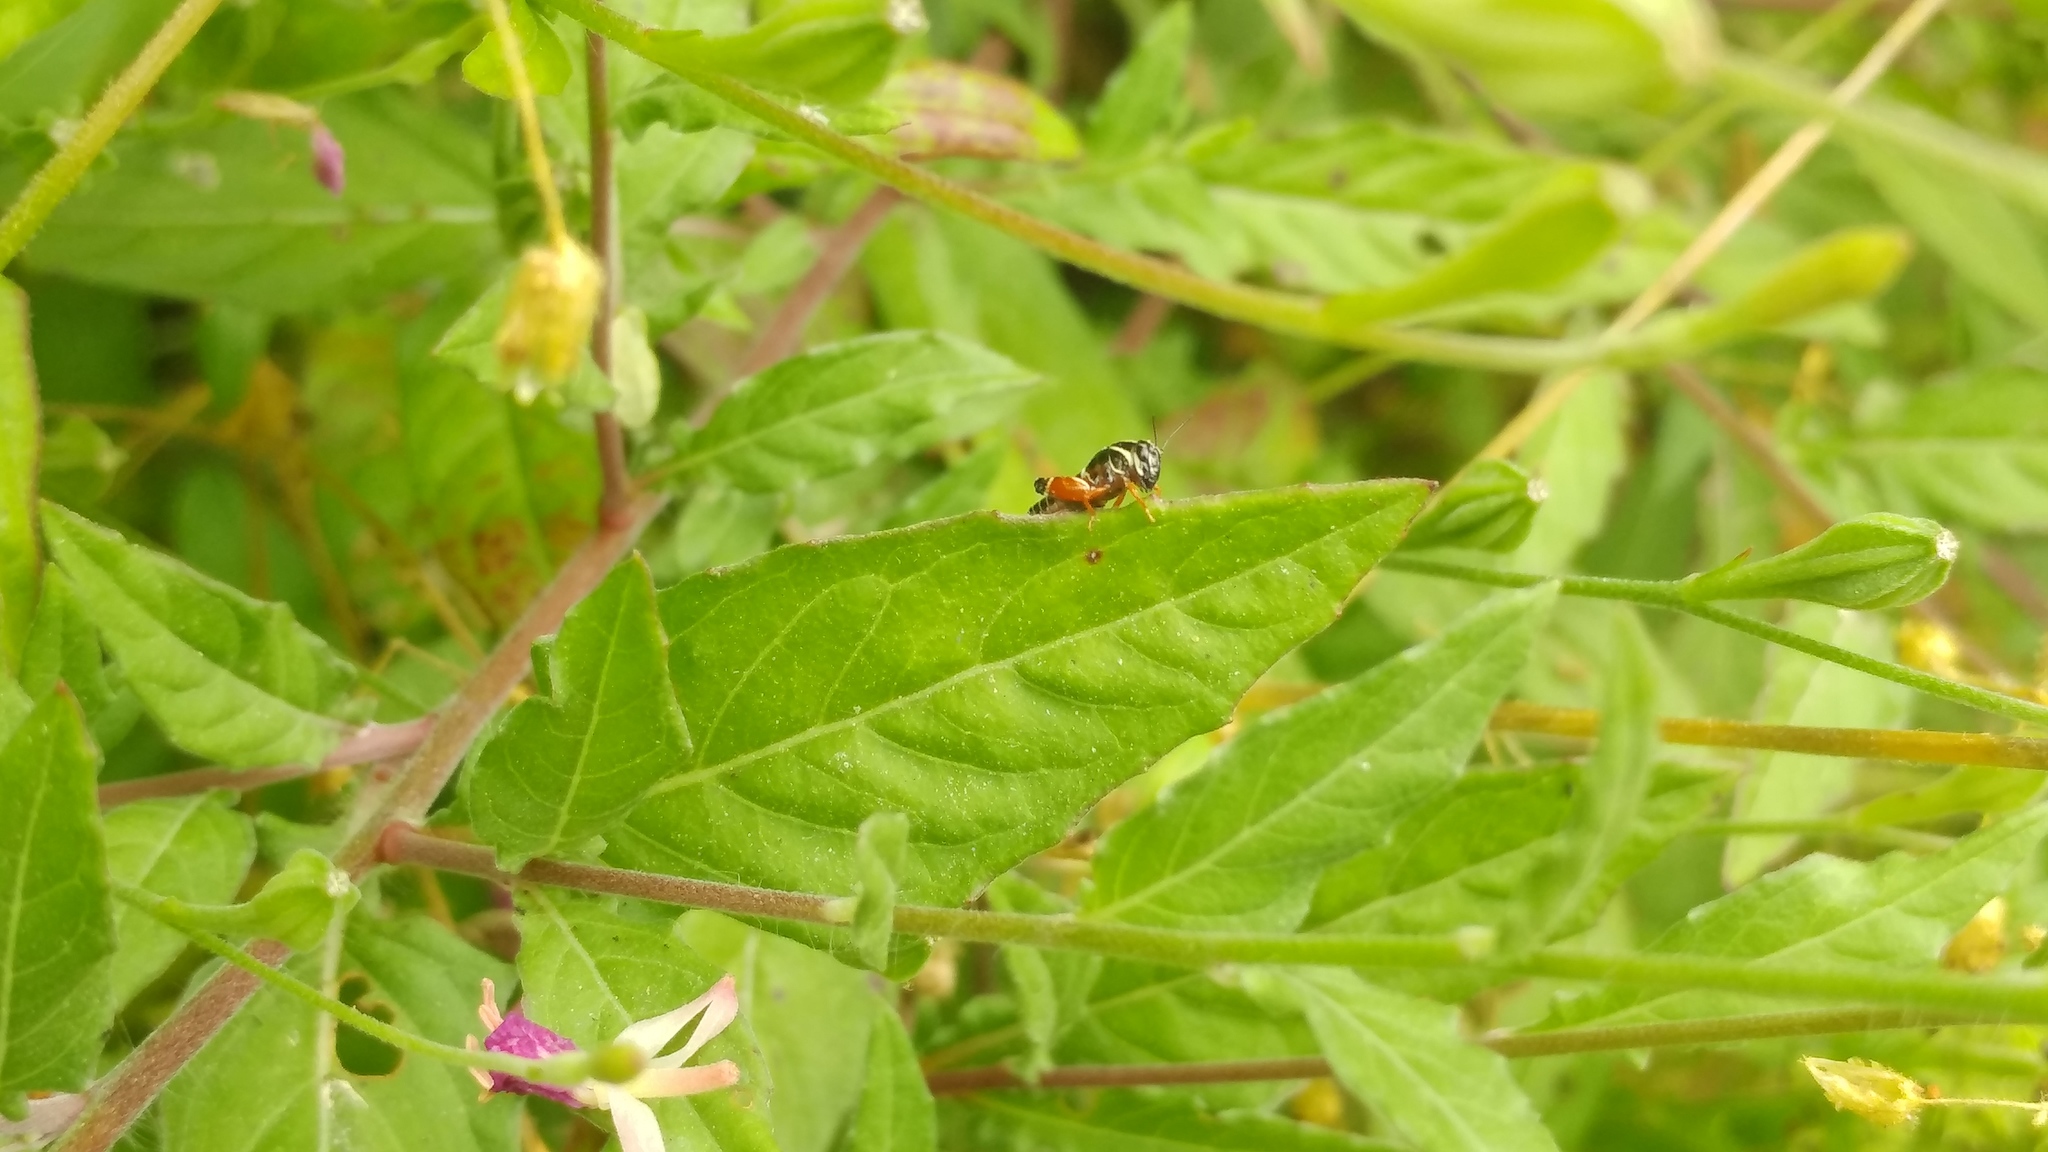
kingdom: Animalia
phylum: Arthropoda
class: Insecta
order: Orthoptera
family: Acrididae
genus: Aidemona
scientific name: Aidemona azteca
